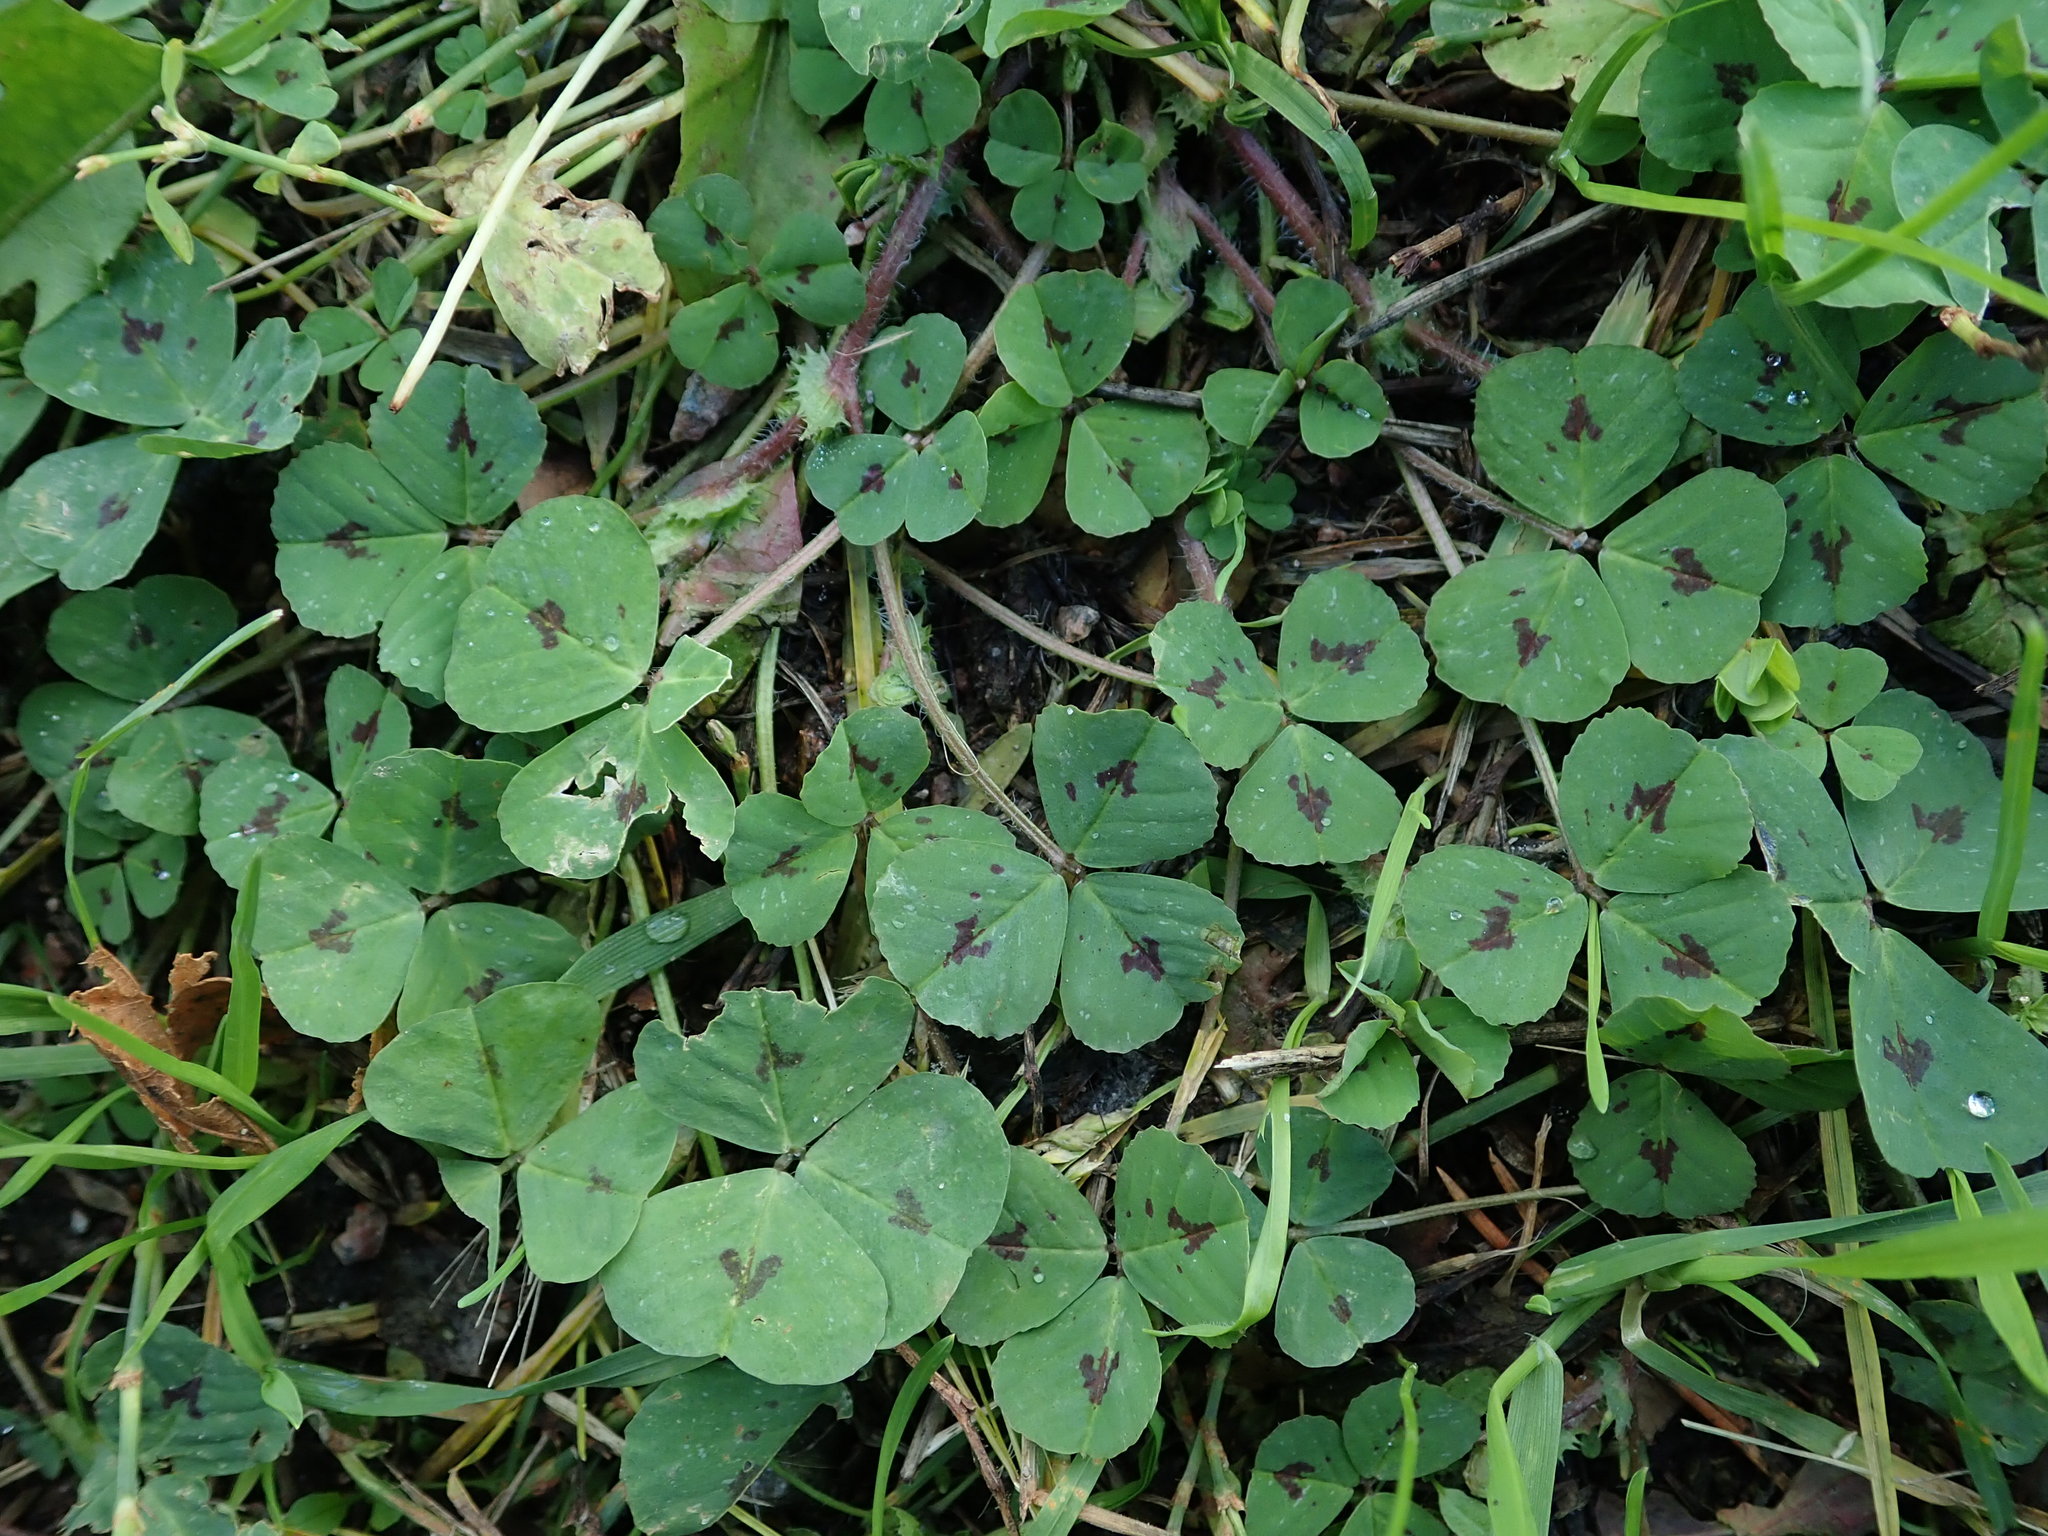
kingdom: Plantae
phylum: Tracheophyta
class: Magnoliopsida
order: Fabales
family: Fabaceae
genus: Medicago
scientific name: Medicago arabica
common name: Spotted medick
